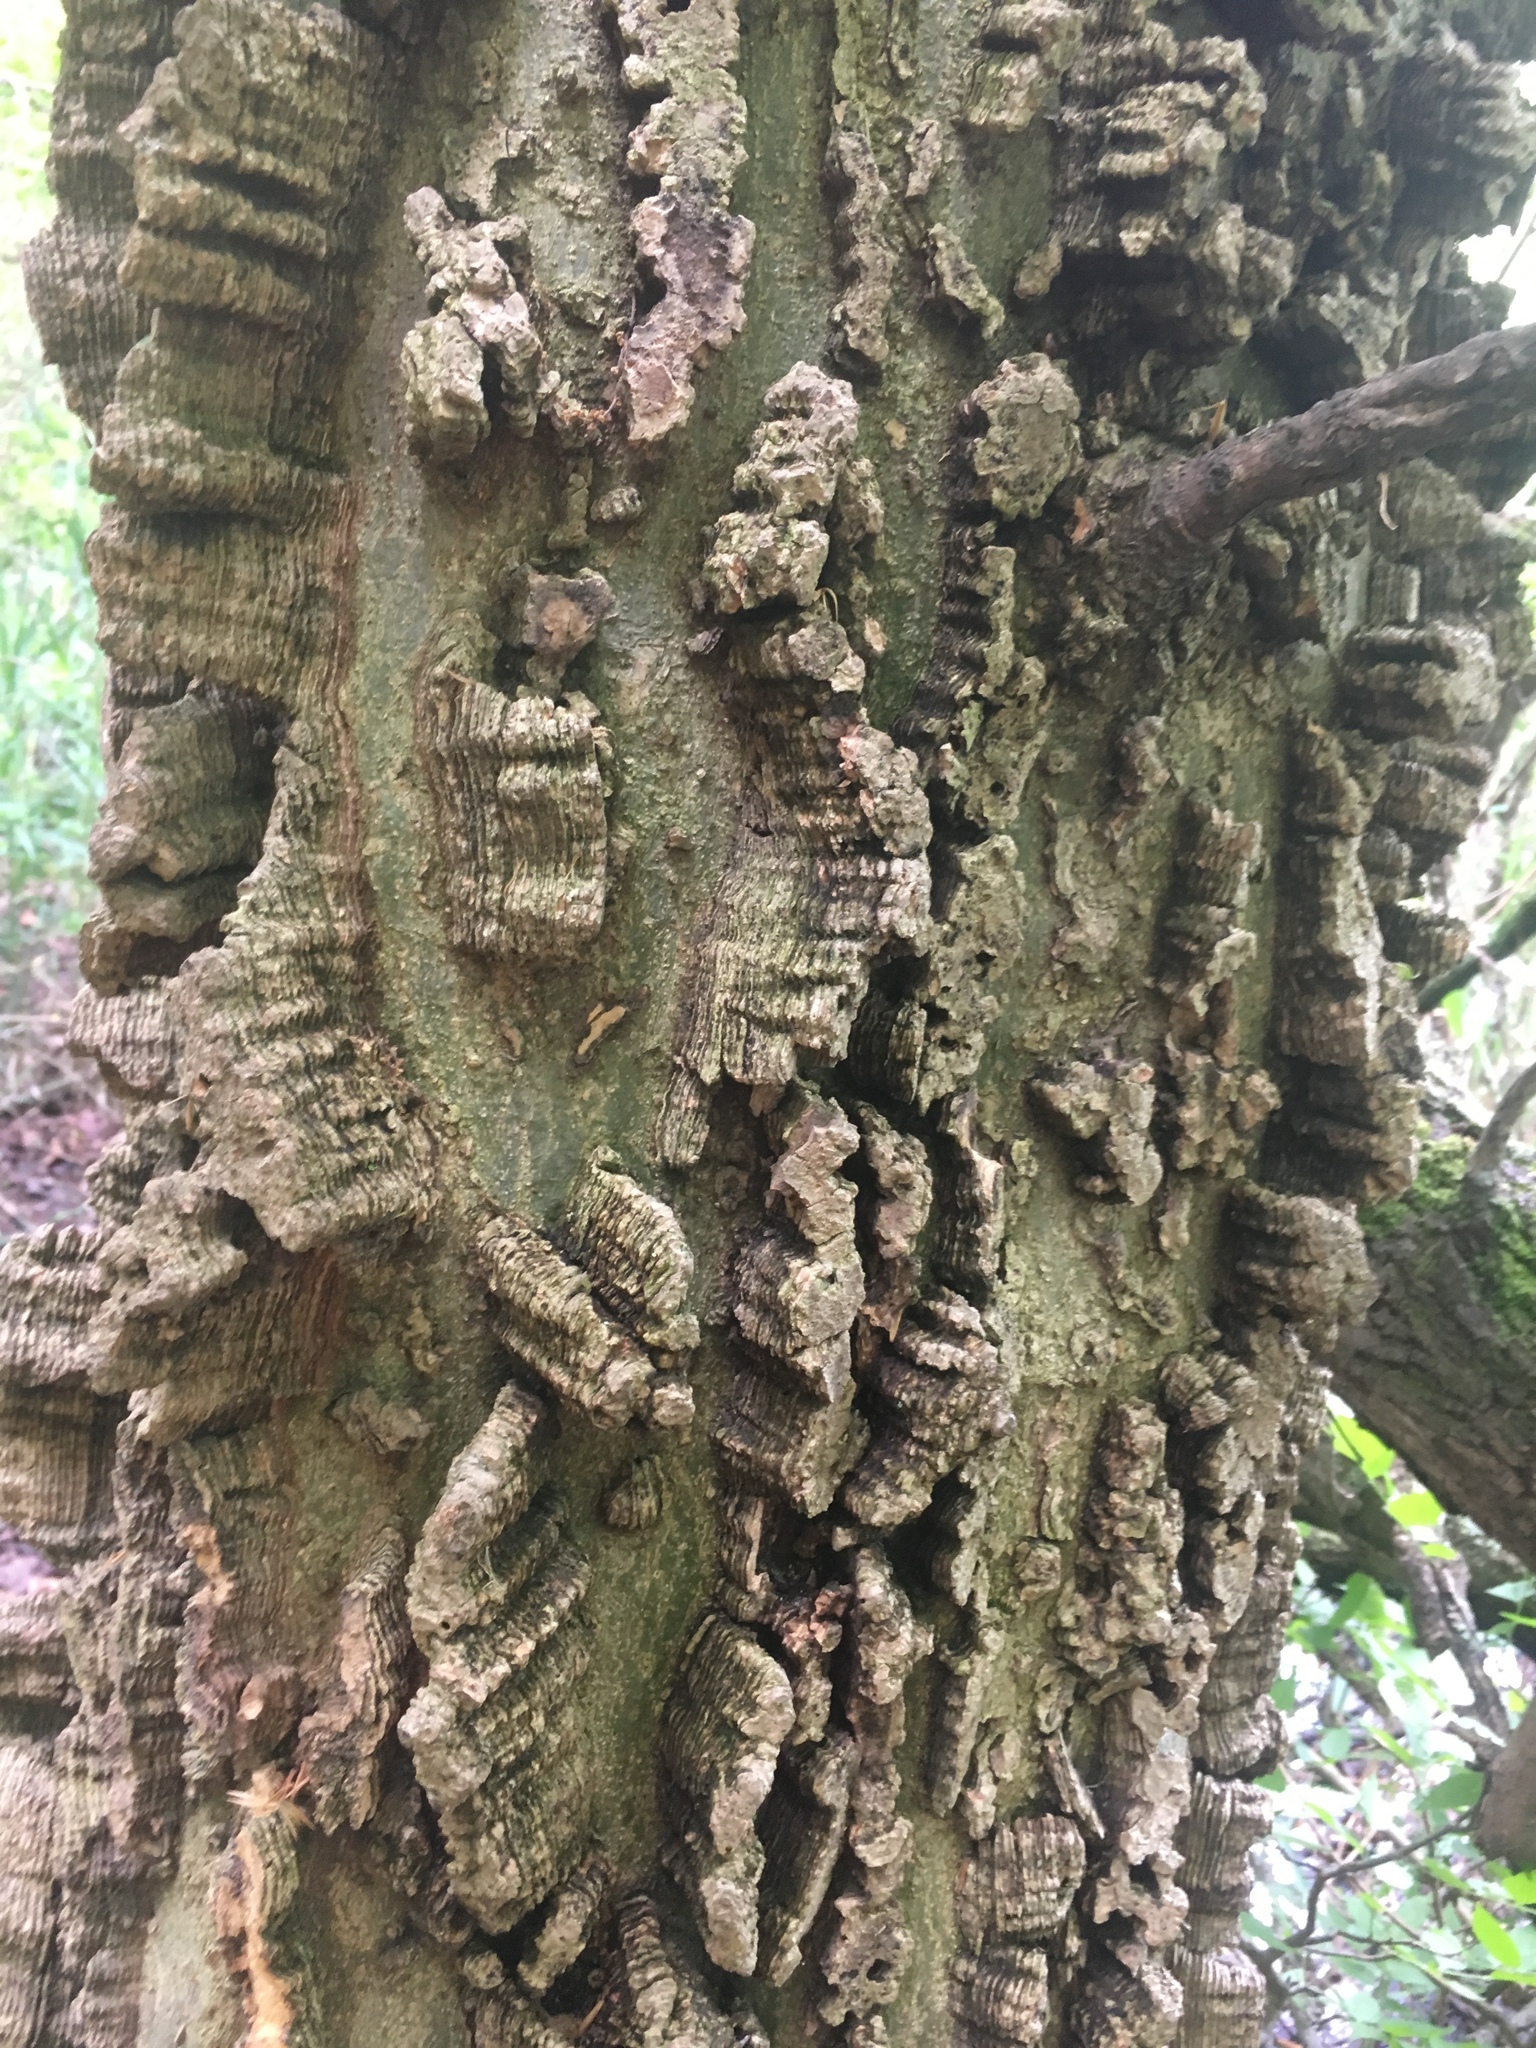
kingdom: Plantae
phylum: Tracheophyta
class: Magnoliopsida
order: Rosales
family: Cannabaceae
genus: Celtis
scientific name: Celtis occidentalis
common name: Common hackberry
